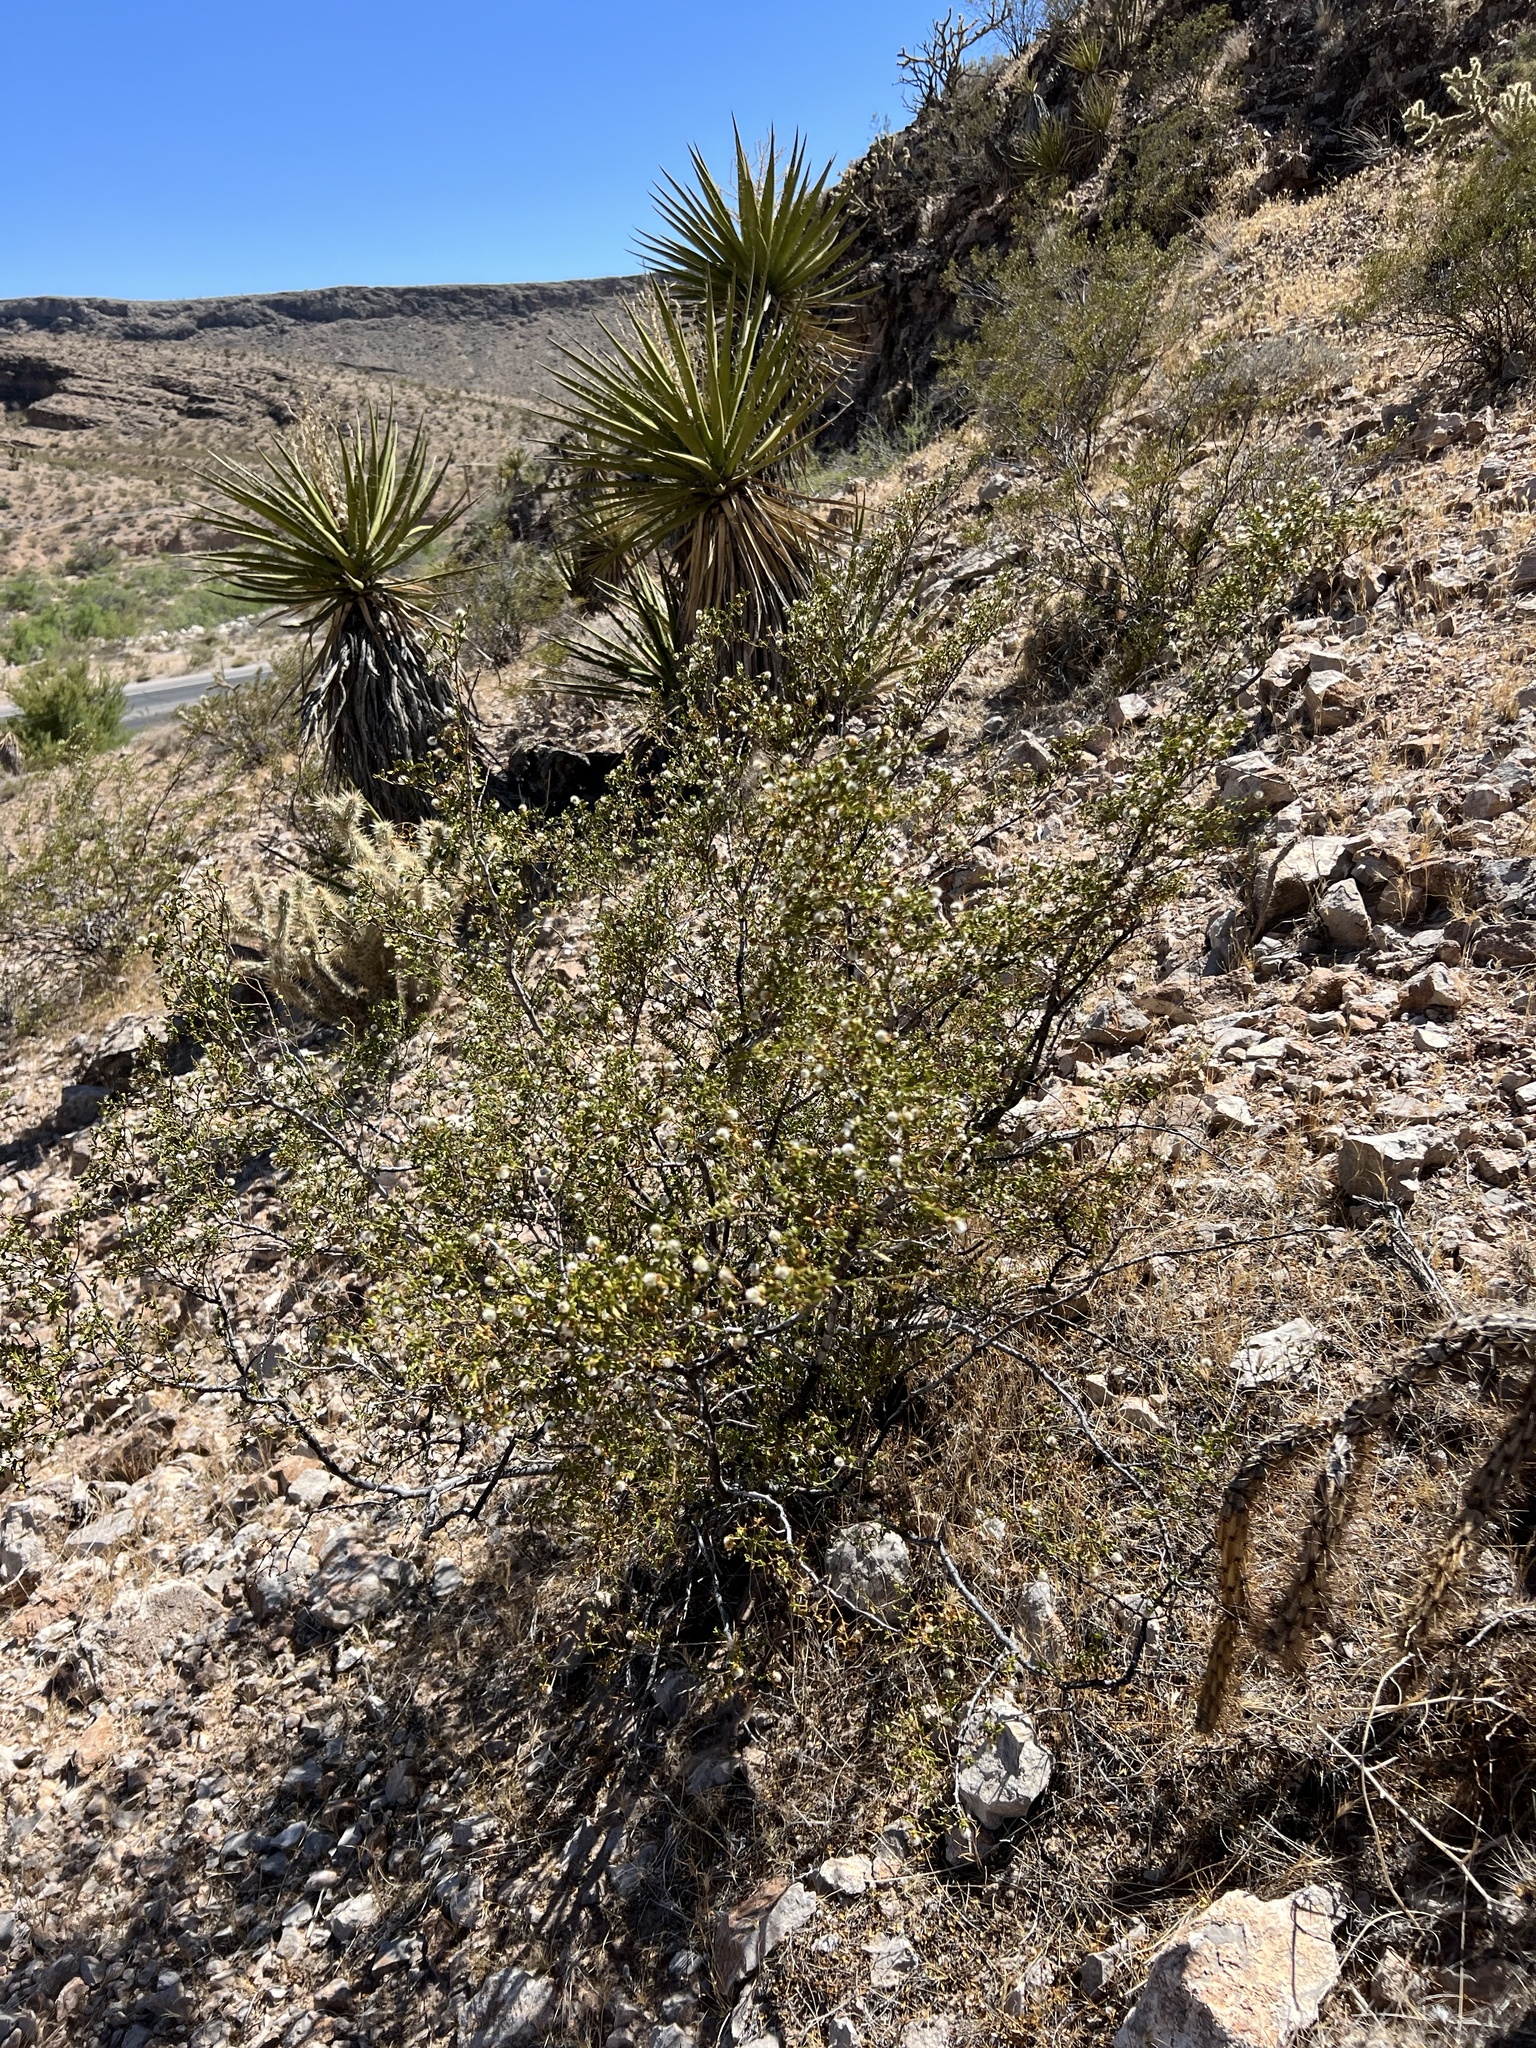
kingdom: Plantae
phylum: Tracheophyta
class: Magnoliopsida
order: Zygophyllales
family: Zygophyllaceae
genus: Larrea
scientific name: Larrea tridentata
